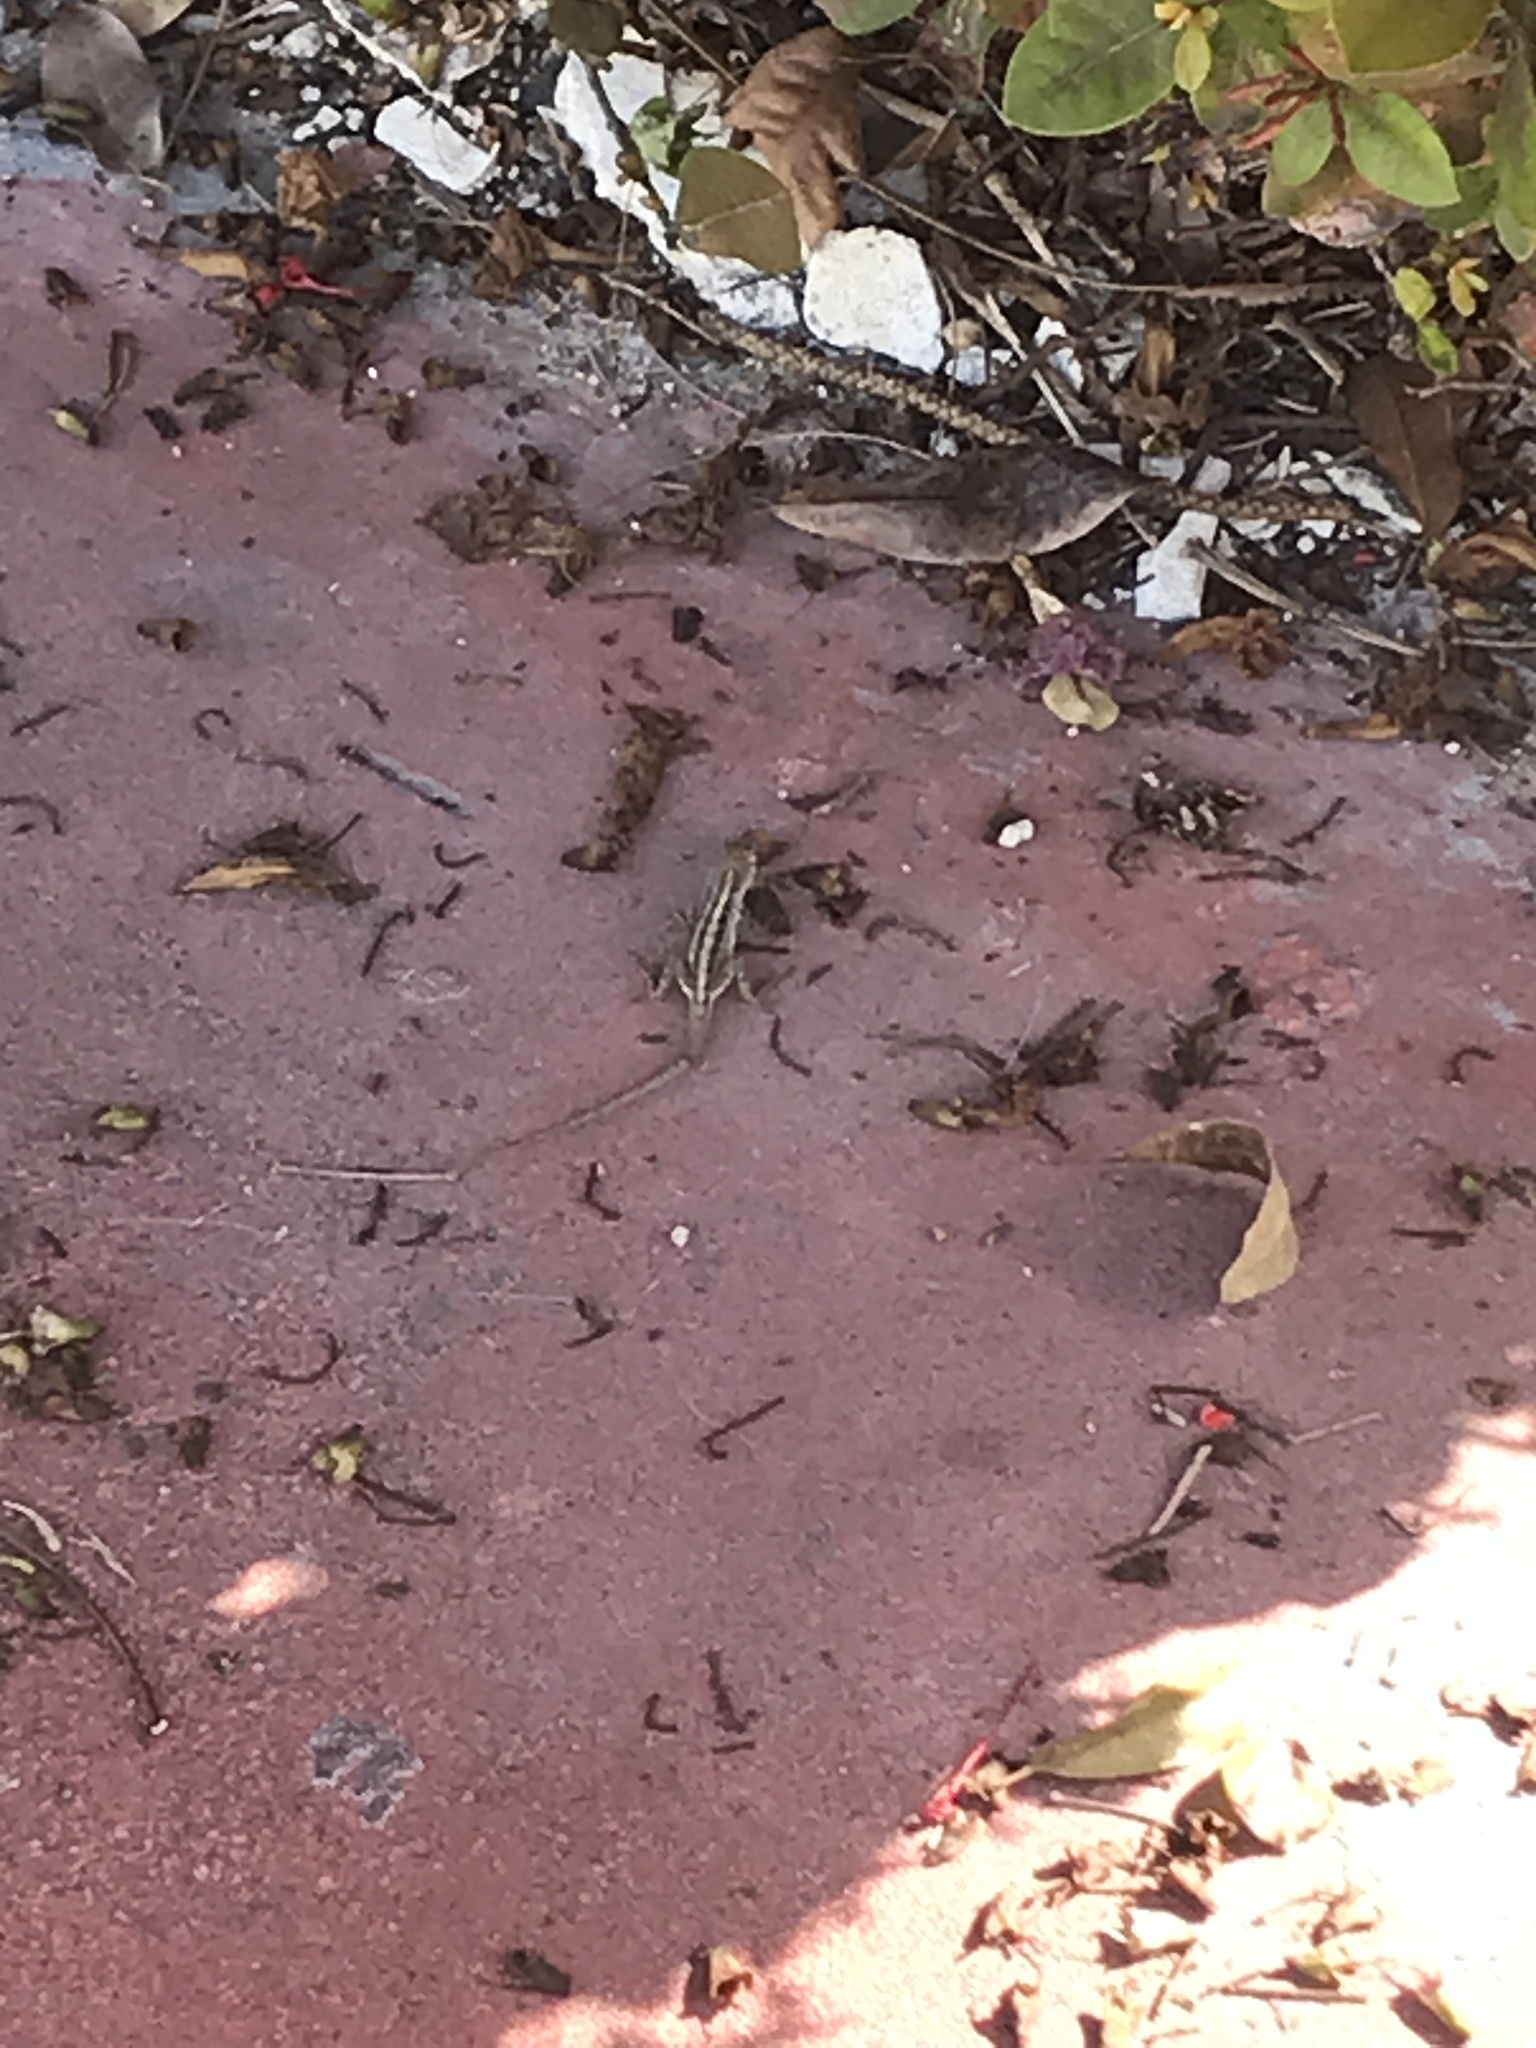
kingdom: Animalia
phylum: Chordata
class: Squamata
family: Dactyloidae
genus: Anolis
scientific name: Anolis sagrei
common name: Brown anole
